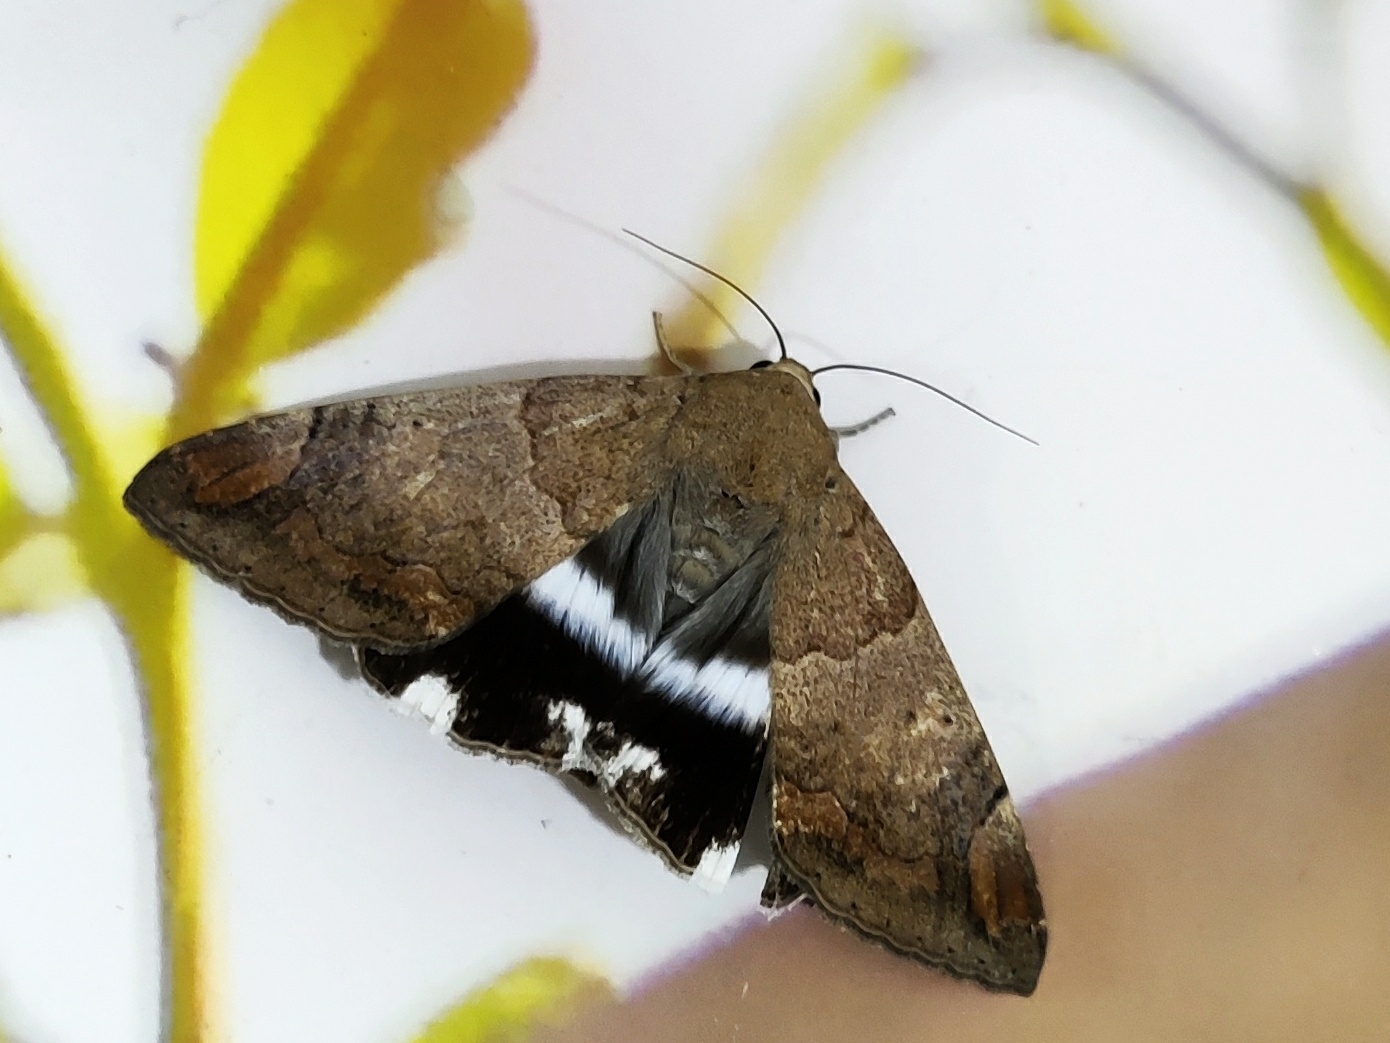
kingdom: Animalia
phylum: Arthropoda
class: Insecta
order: Lepidoptera
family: Erebidae
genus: Achaea
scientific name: Achaea janata
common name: Croton caterpillar
